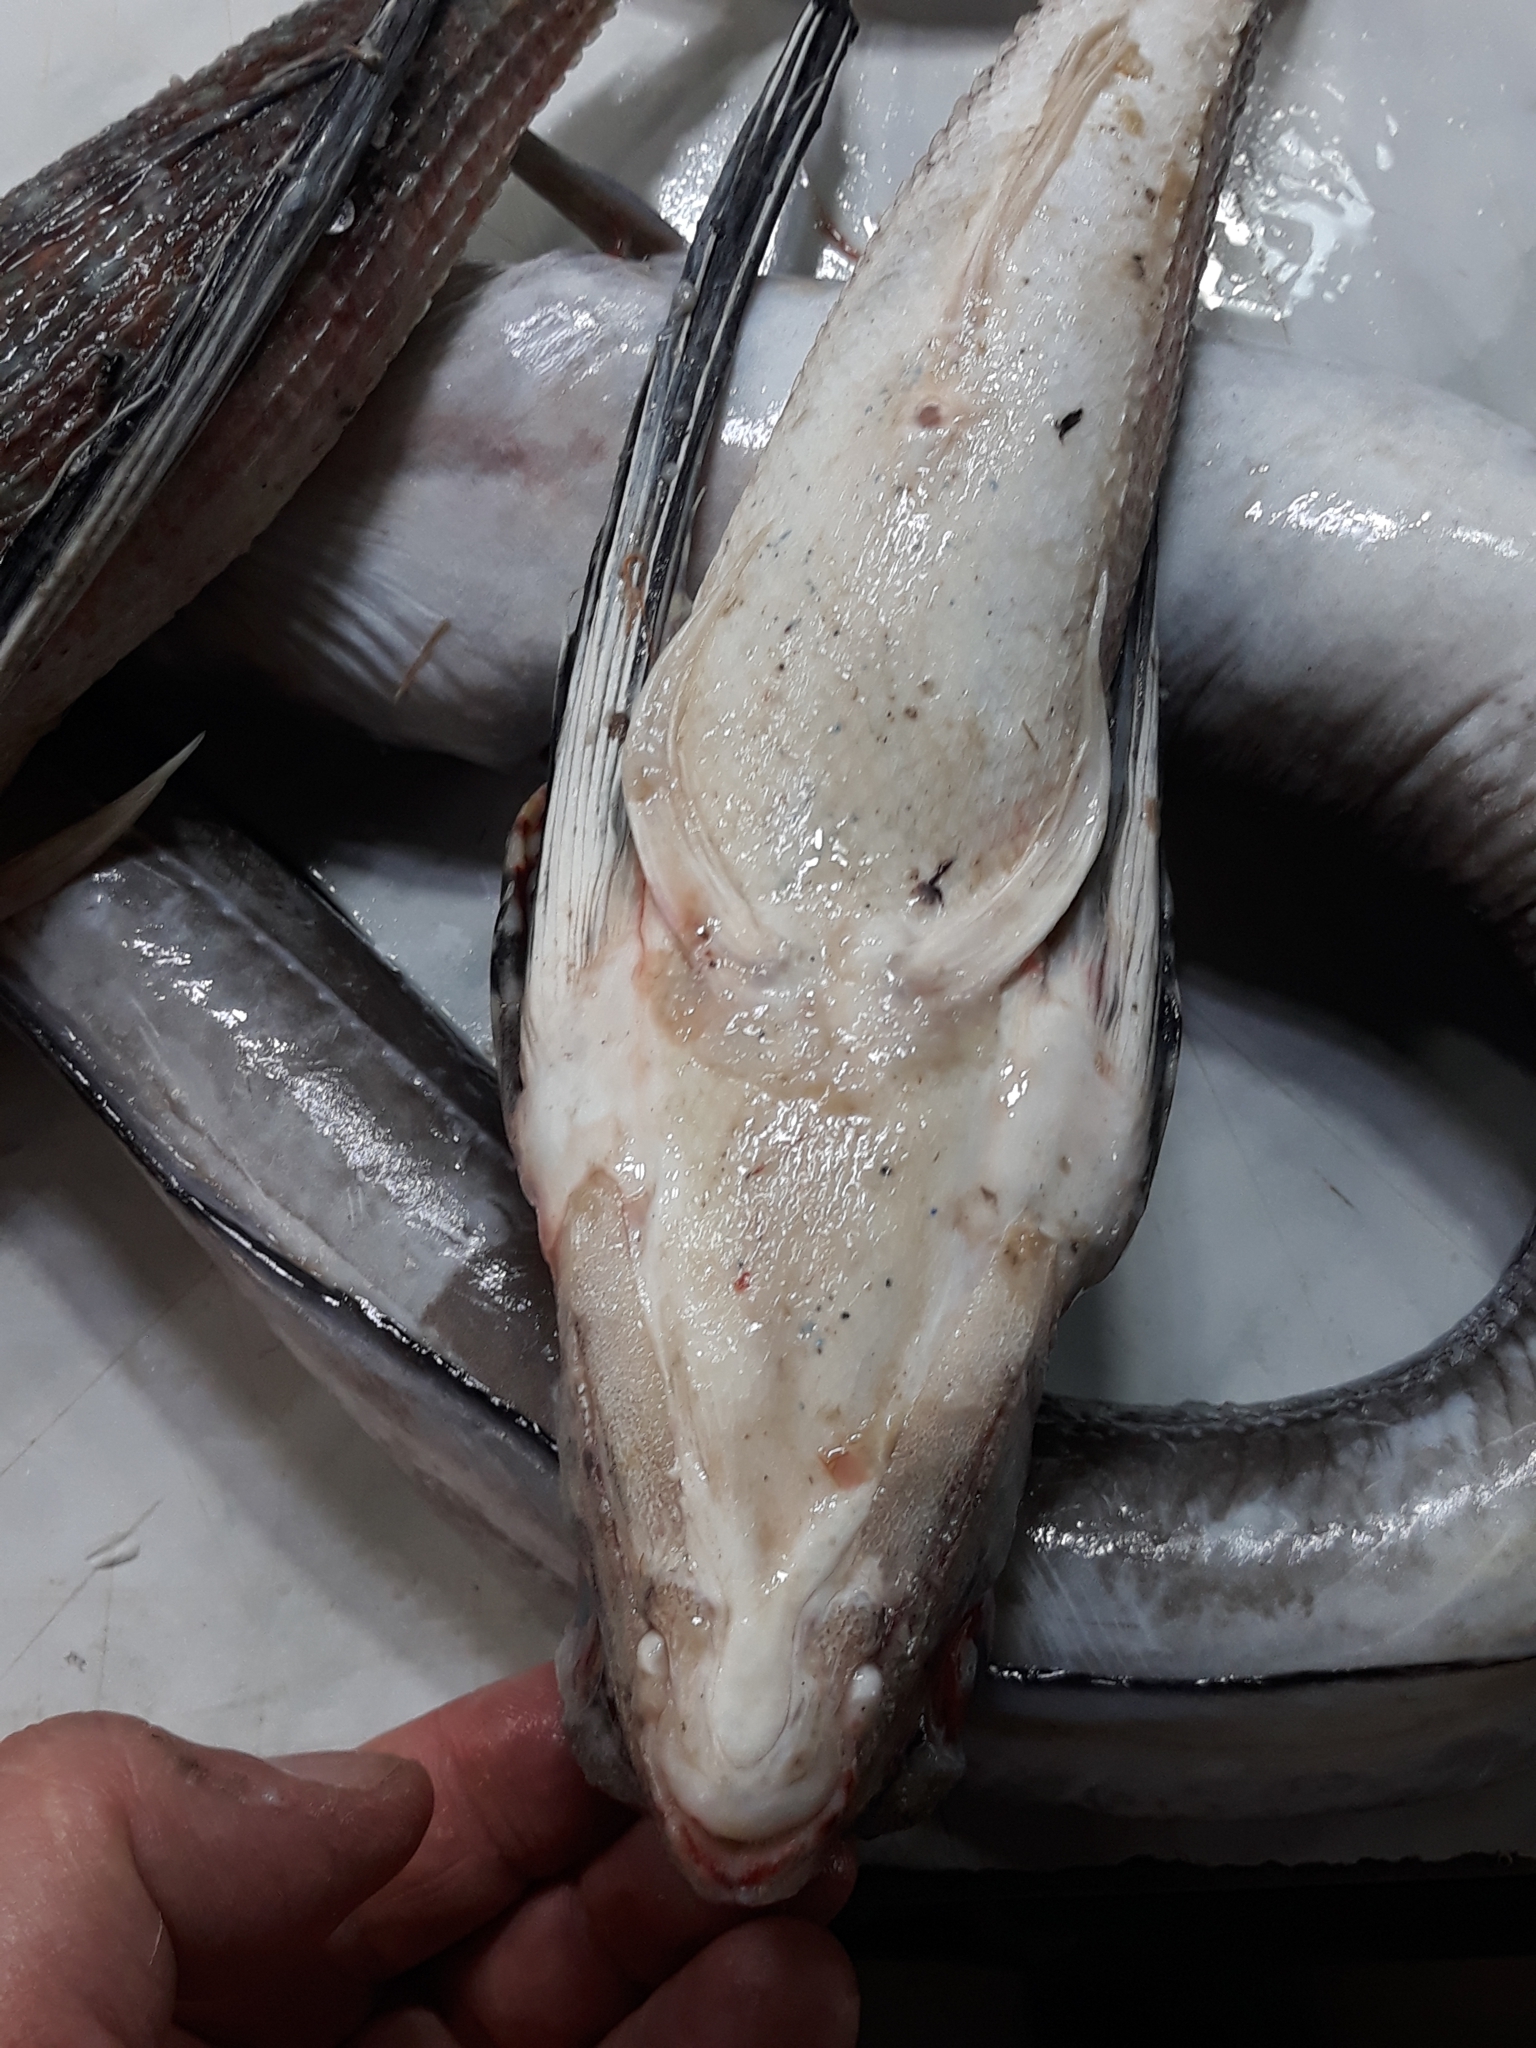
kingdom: Animalia
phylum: Chordata
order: Scorpaeniformes
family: Dactylopteridae
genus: Dactylopterus
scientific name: Dactylopterus volitans
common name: Flying gurnard
